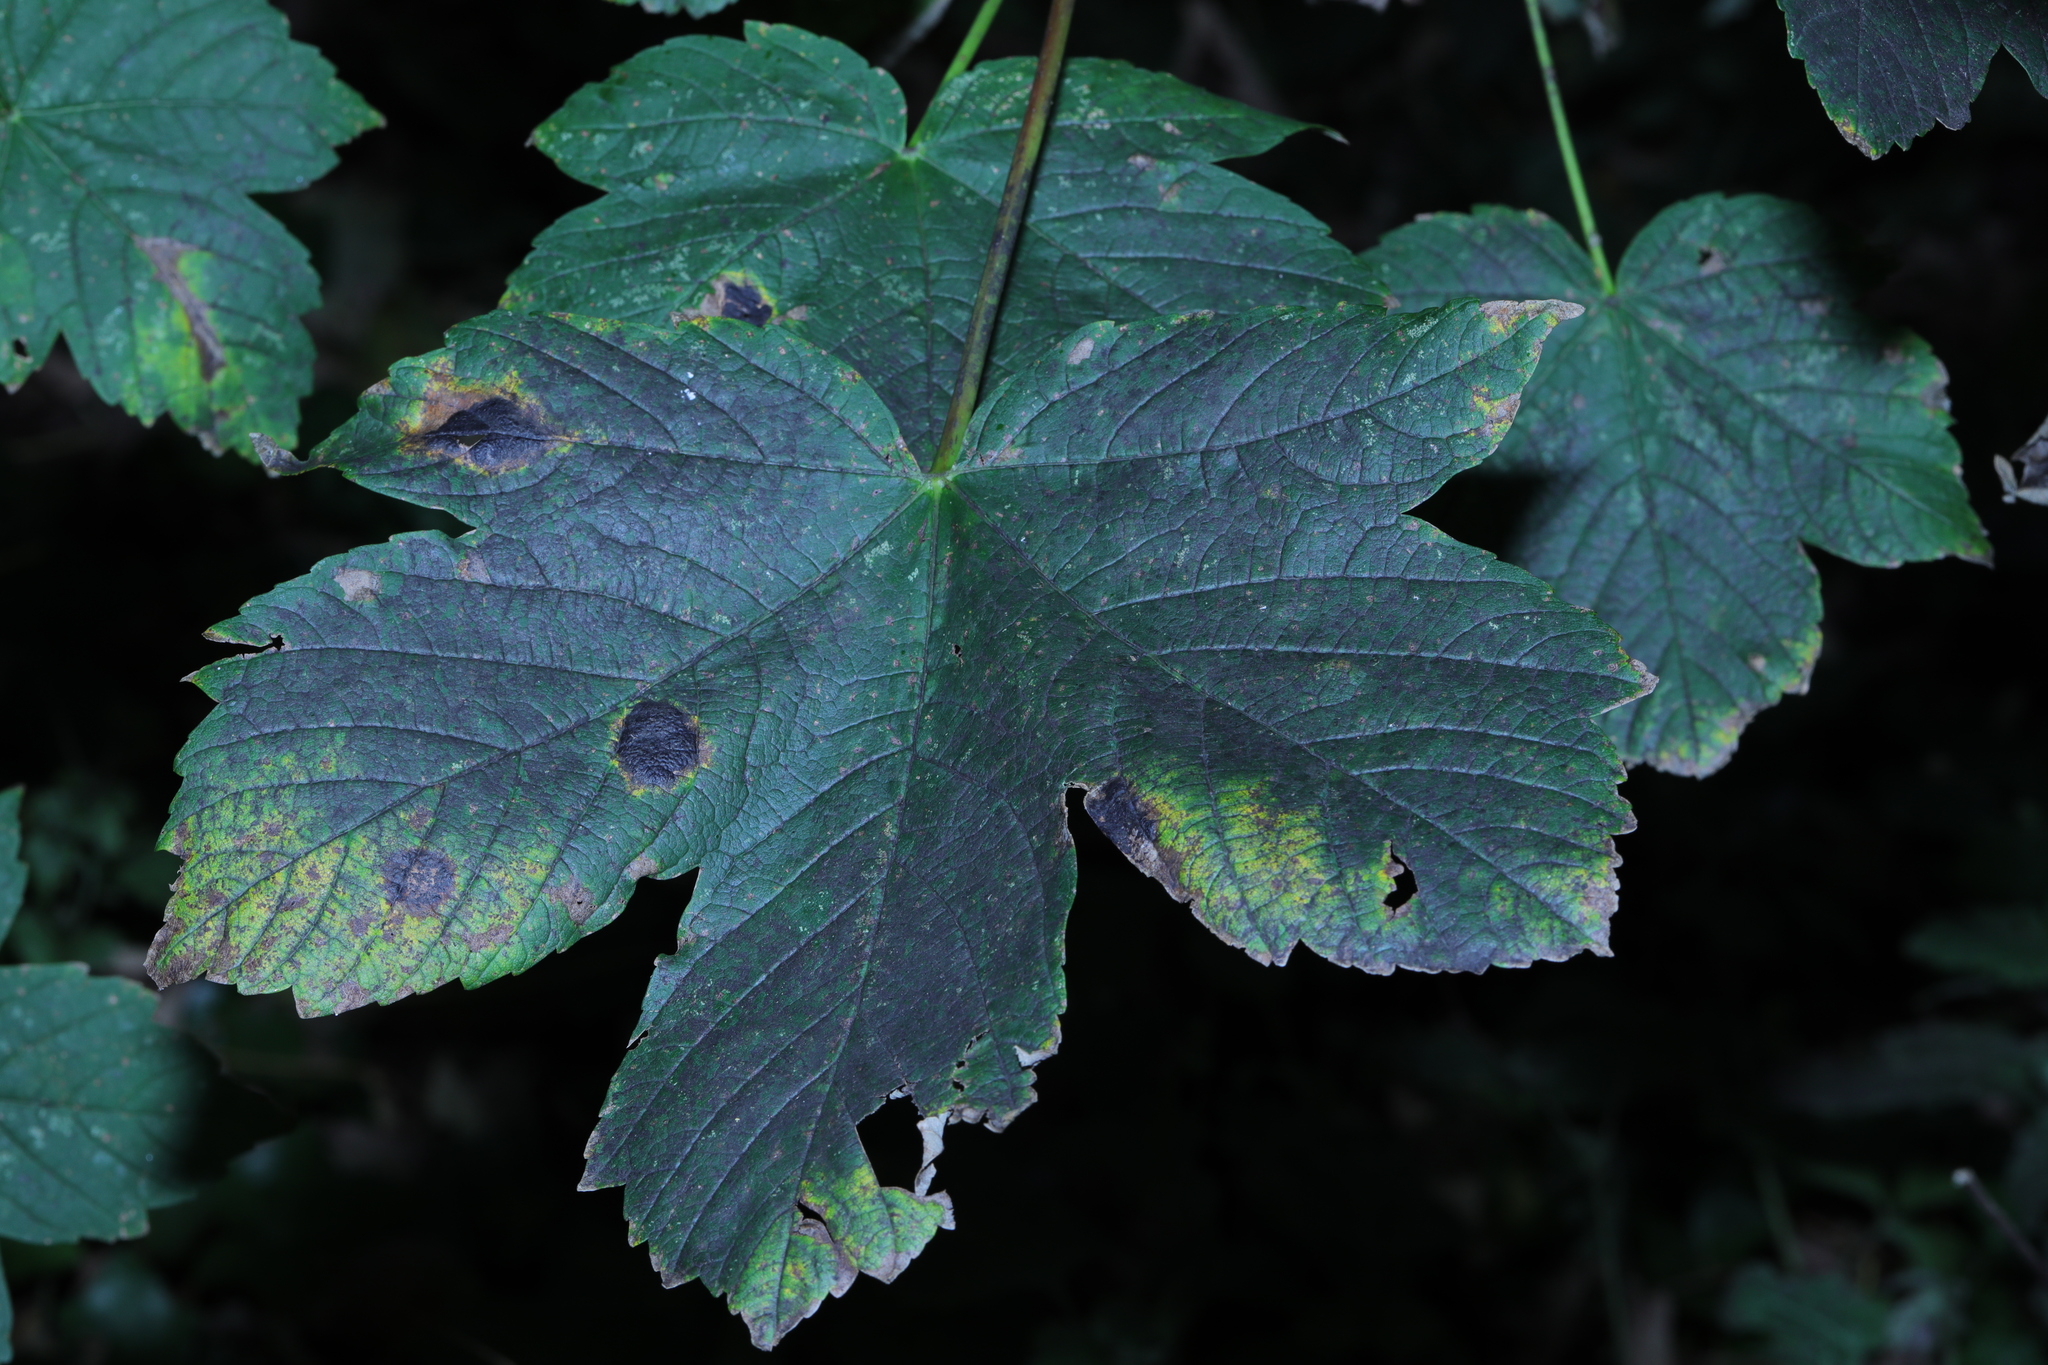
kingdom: Fungi
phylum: Ascomycota
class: Leotiomycetes
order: Rhytismatales
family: Rhytismataceae
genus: Rhytisma
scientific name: Rhytisma acerinum
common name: European tar spot
